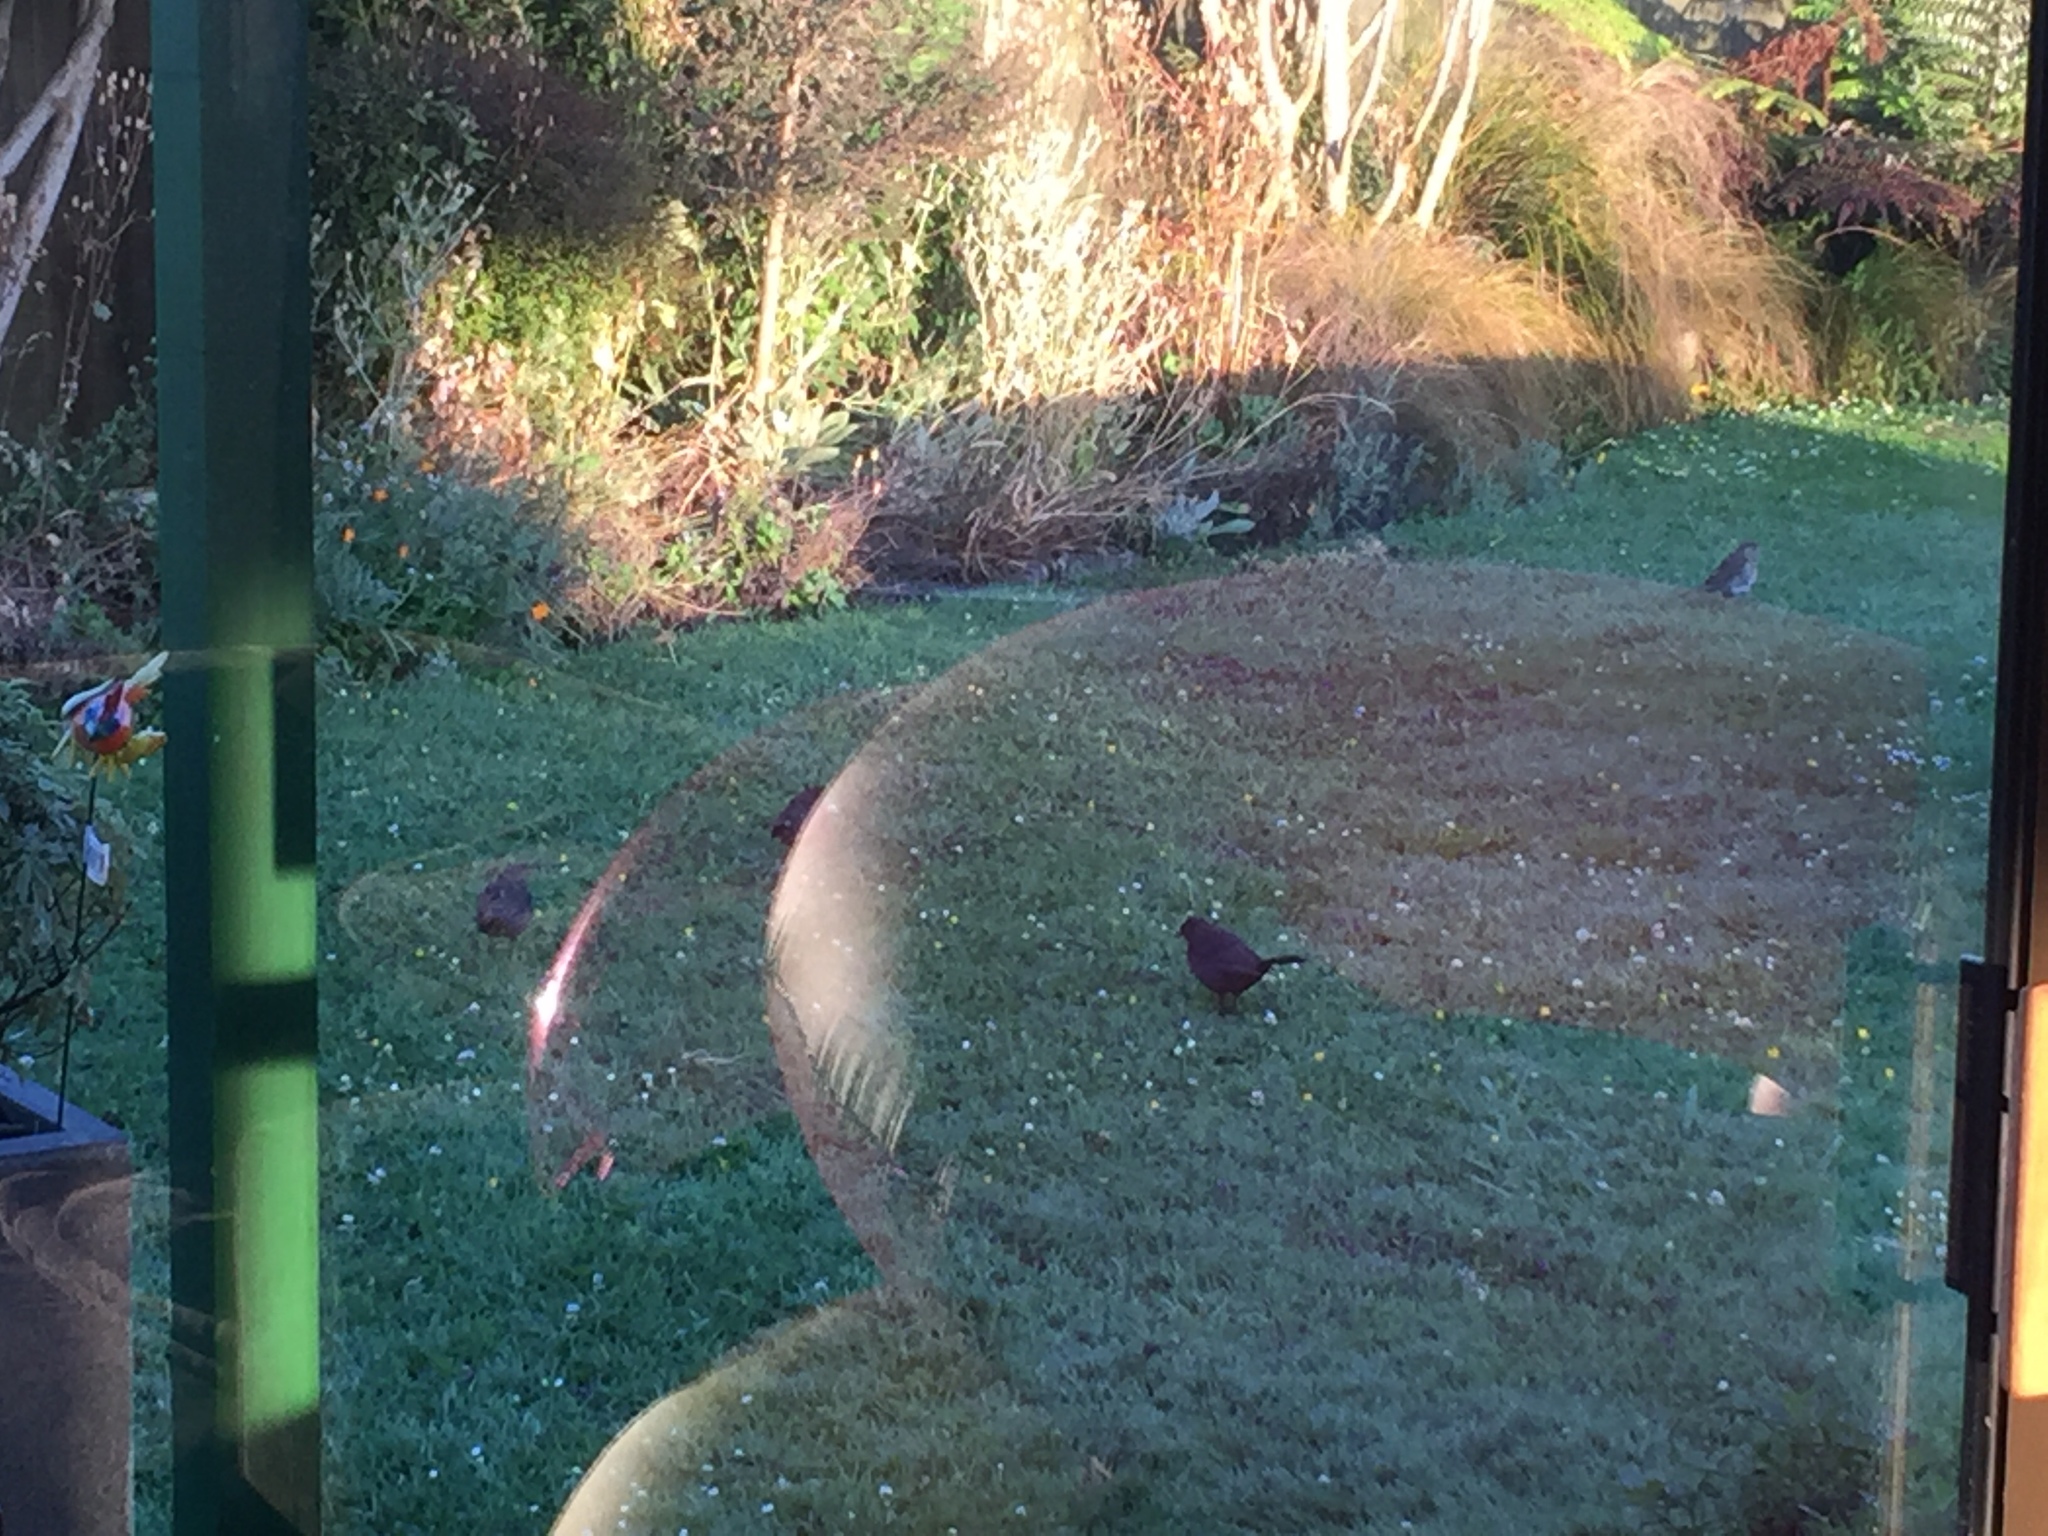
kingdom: Animalia
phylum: Chordata
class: Aves
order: Passeriformes
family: Turdidae
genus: Turdus
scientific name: Turdus merula
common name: Common blackbird
